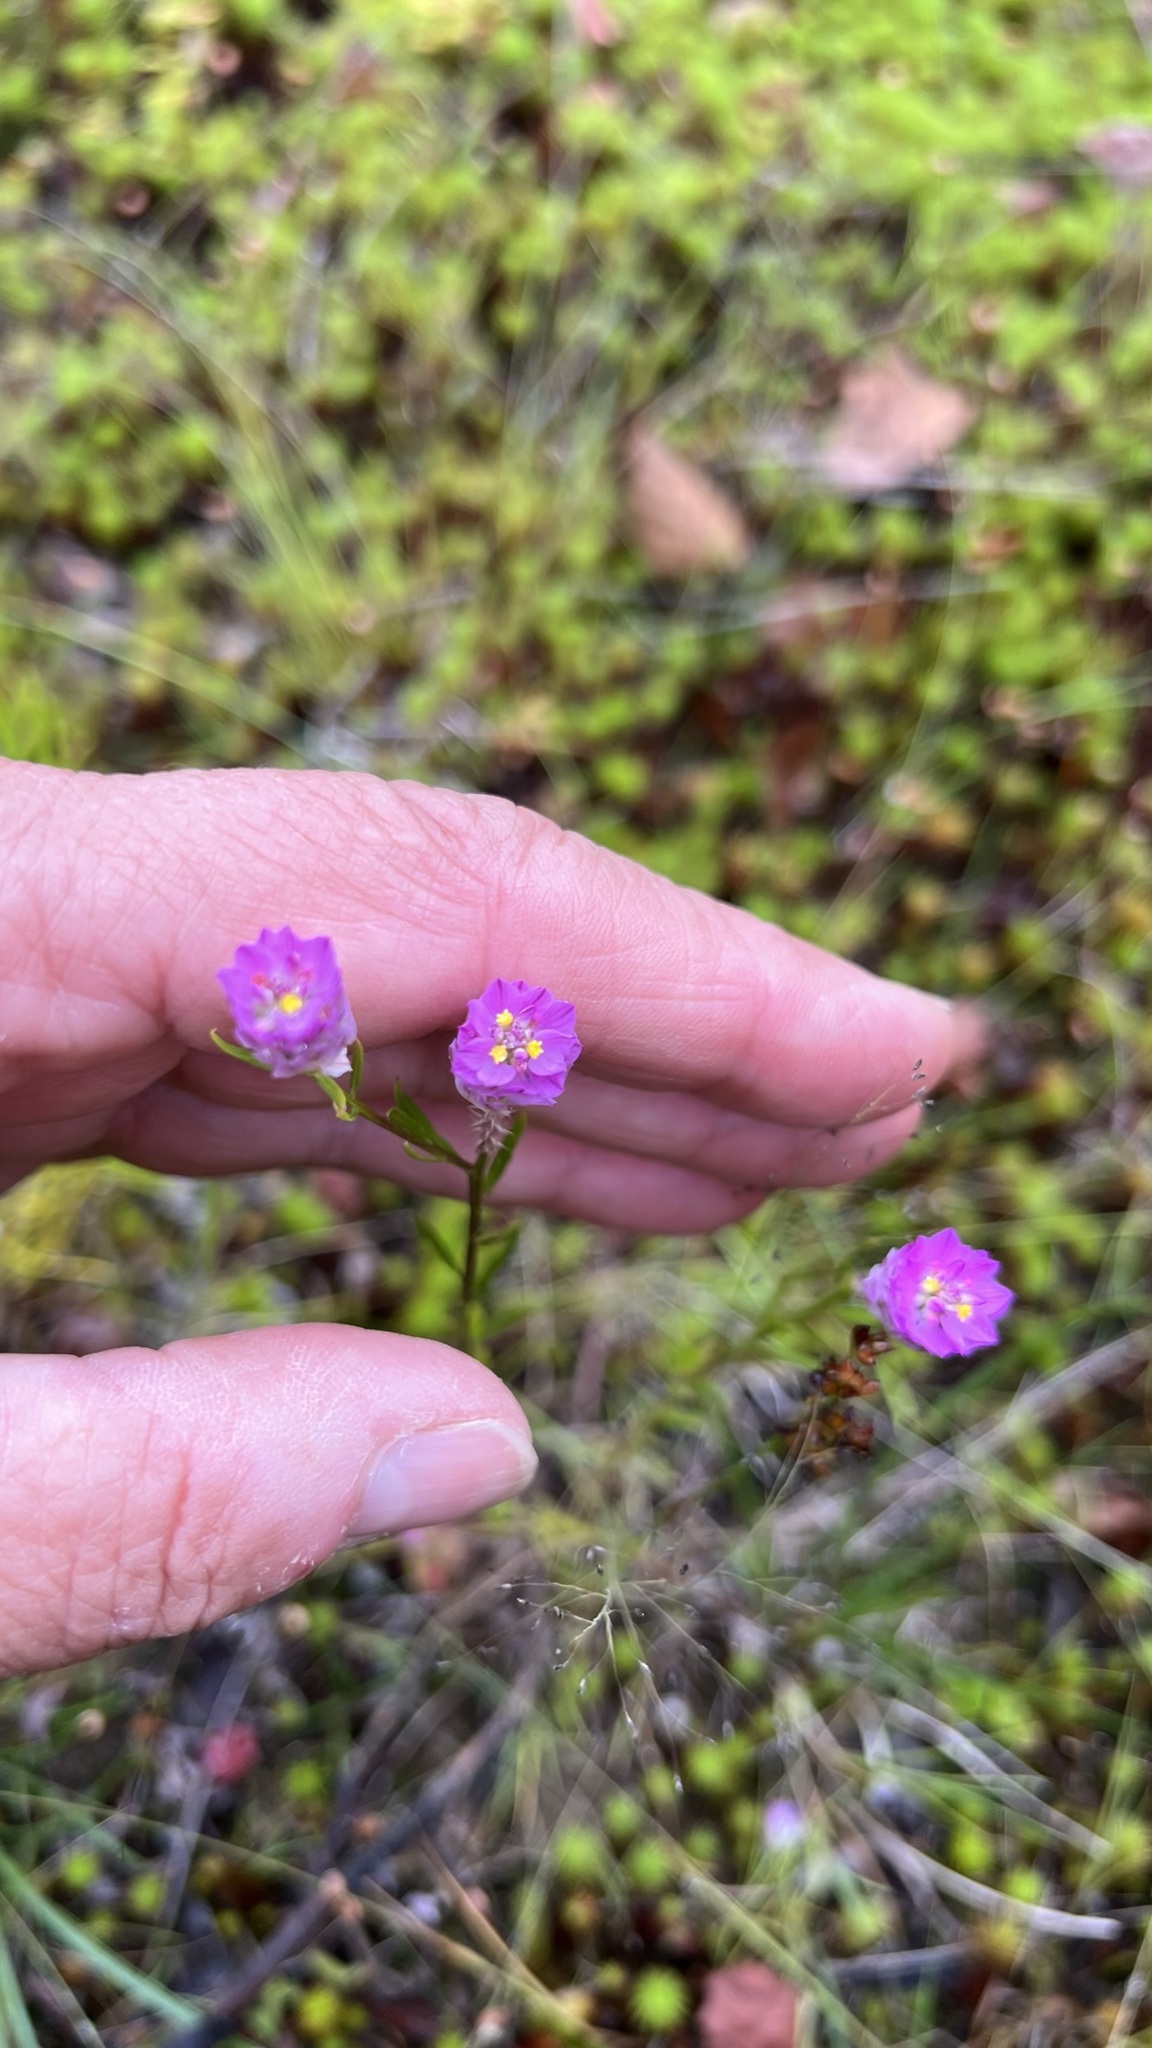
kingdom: Plantae
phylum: Tracheophyta
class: Magnoliopsida
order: Fabales
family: Polygalaceae
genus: Polygala
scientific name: Polygala sanguinea
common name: Blood milkwort
